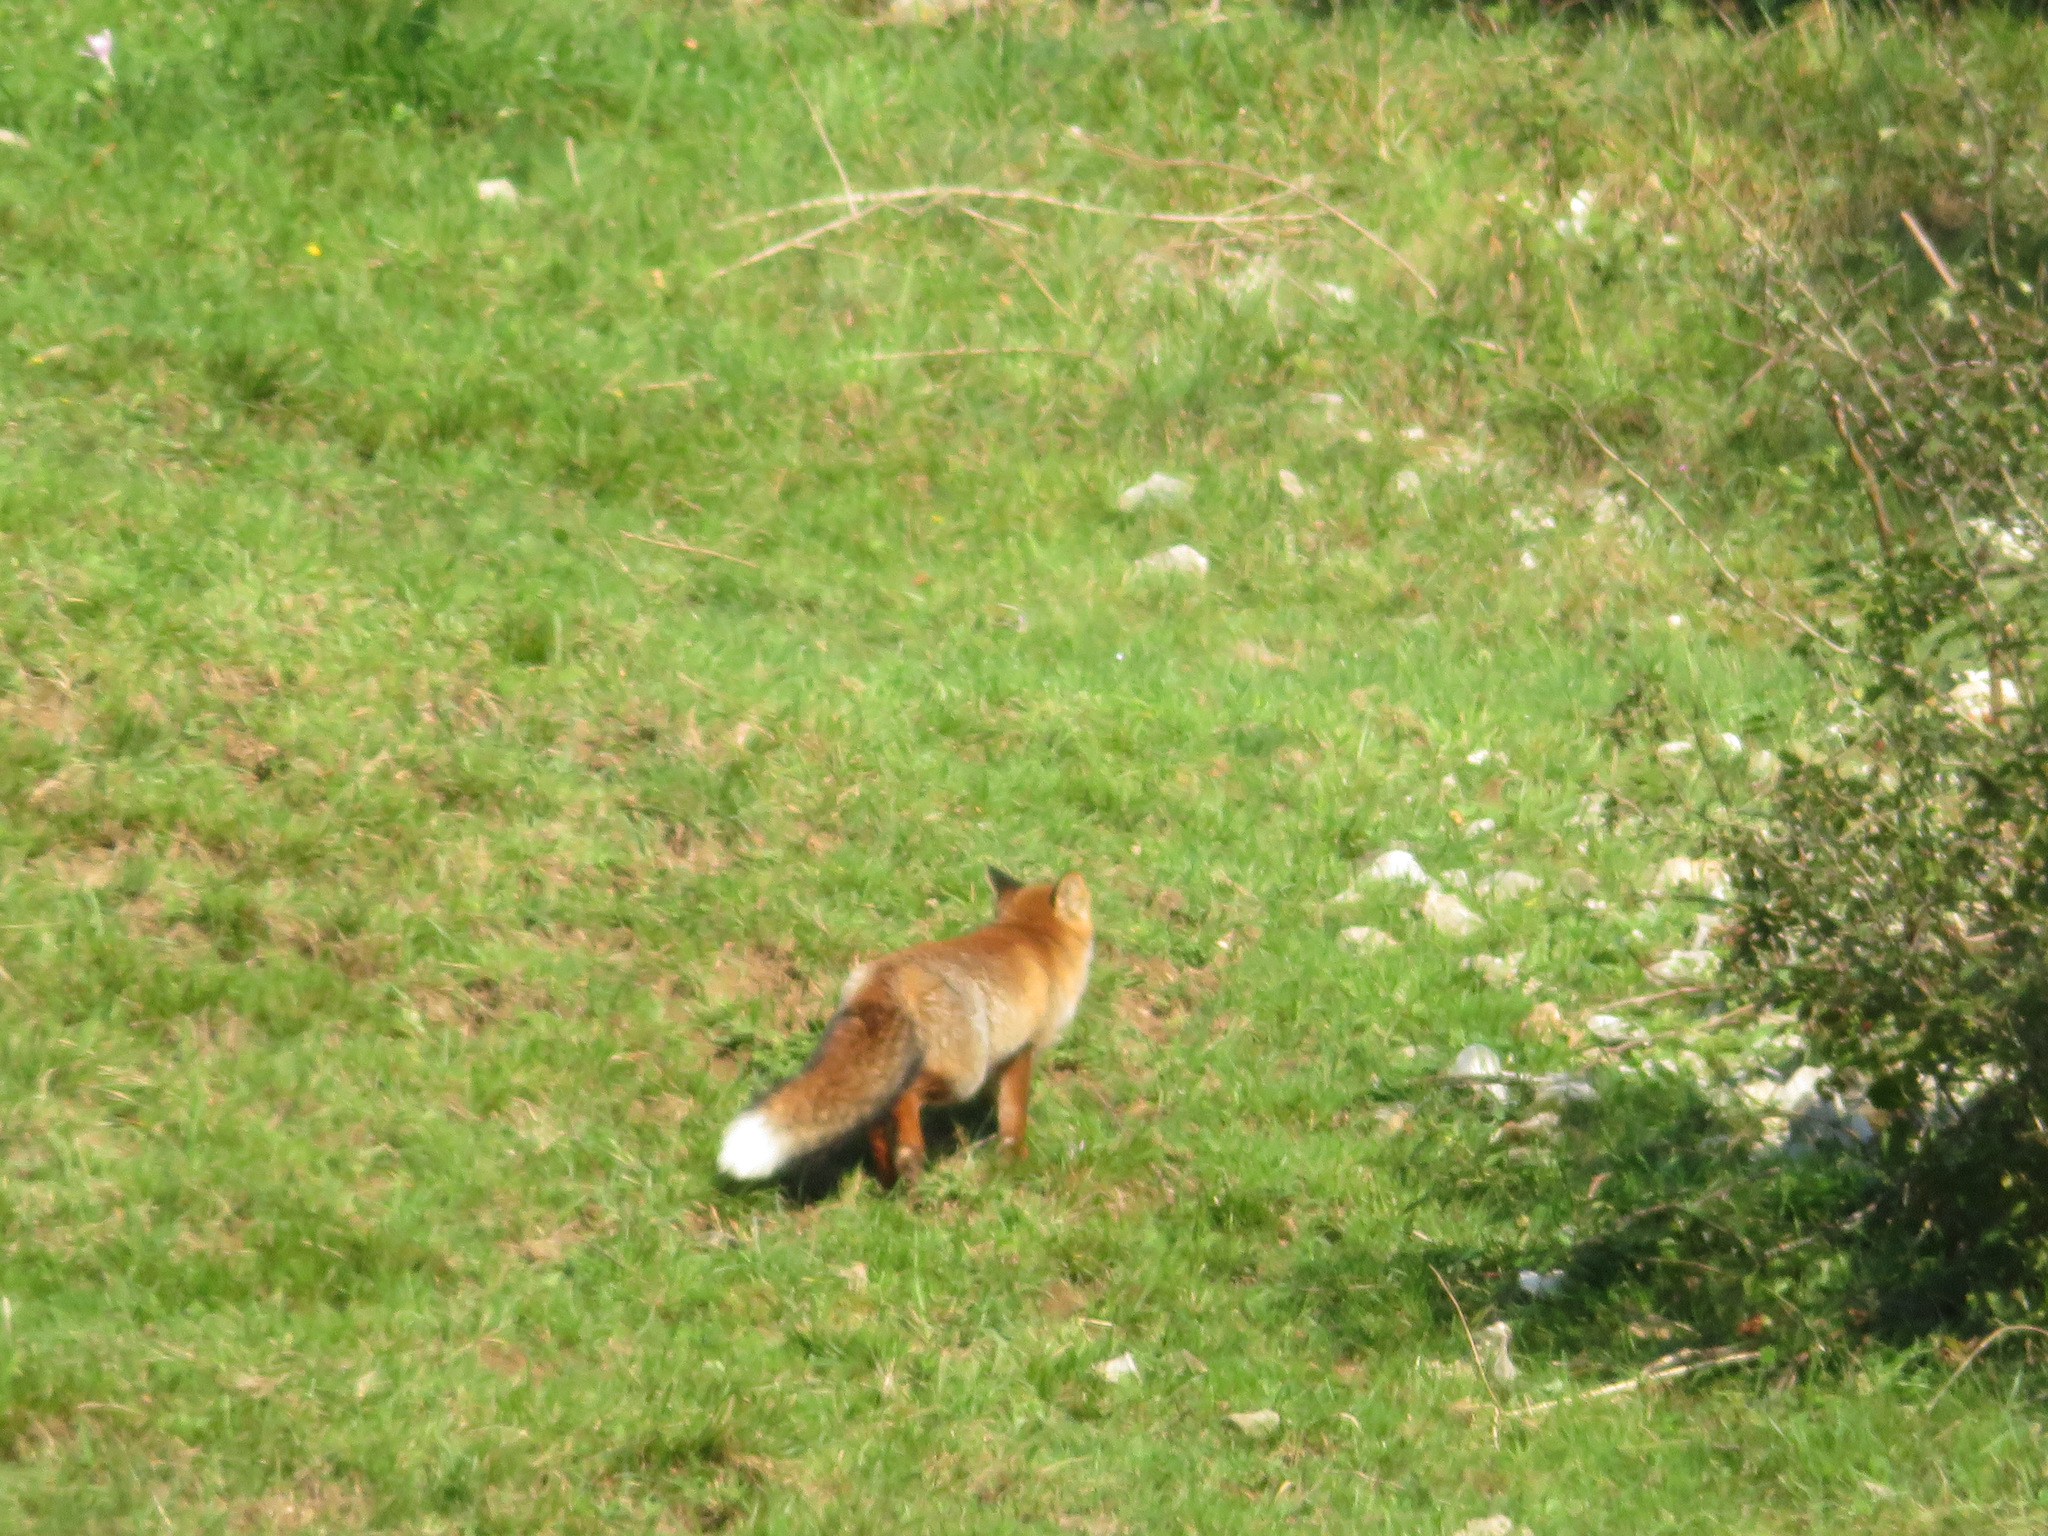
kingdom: Animalia
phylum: Chordata
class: Mammalia
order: Carnivora
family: Canidae
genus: Vulpes
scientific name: Vulpes vulpes
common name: Red fox
